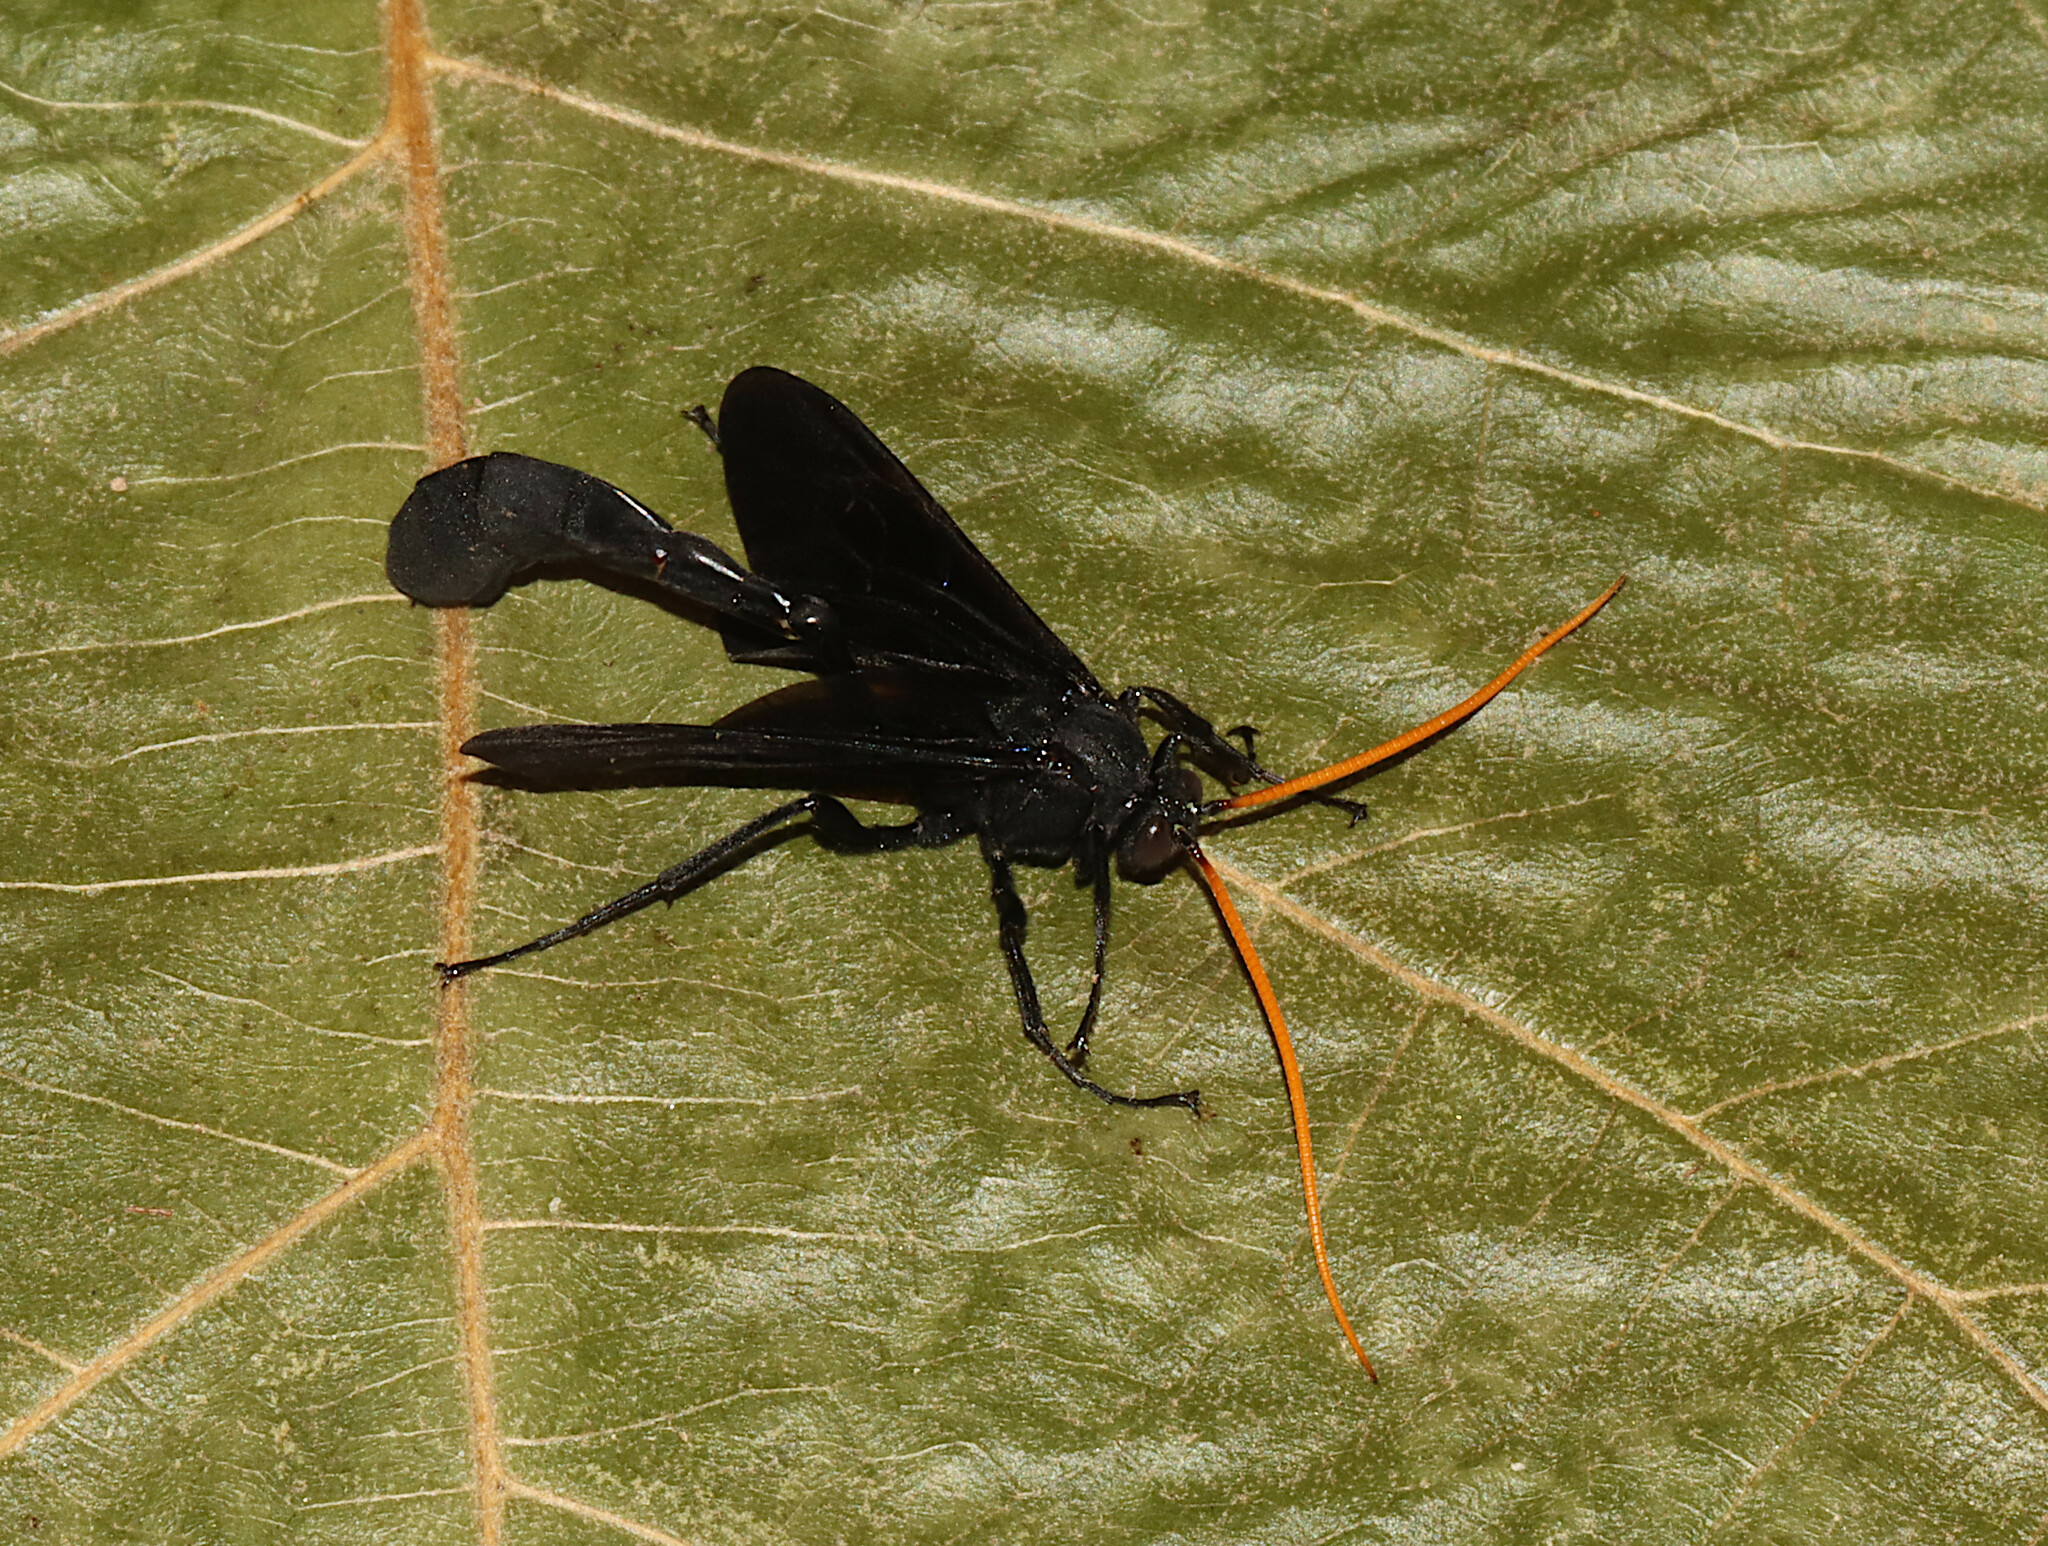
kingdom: Animalia
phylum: Arthropoda
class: Insecta
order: Hymenoptera
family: Ichneumonidae
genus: Thyreodon
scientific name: Thyreodon atricolor
